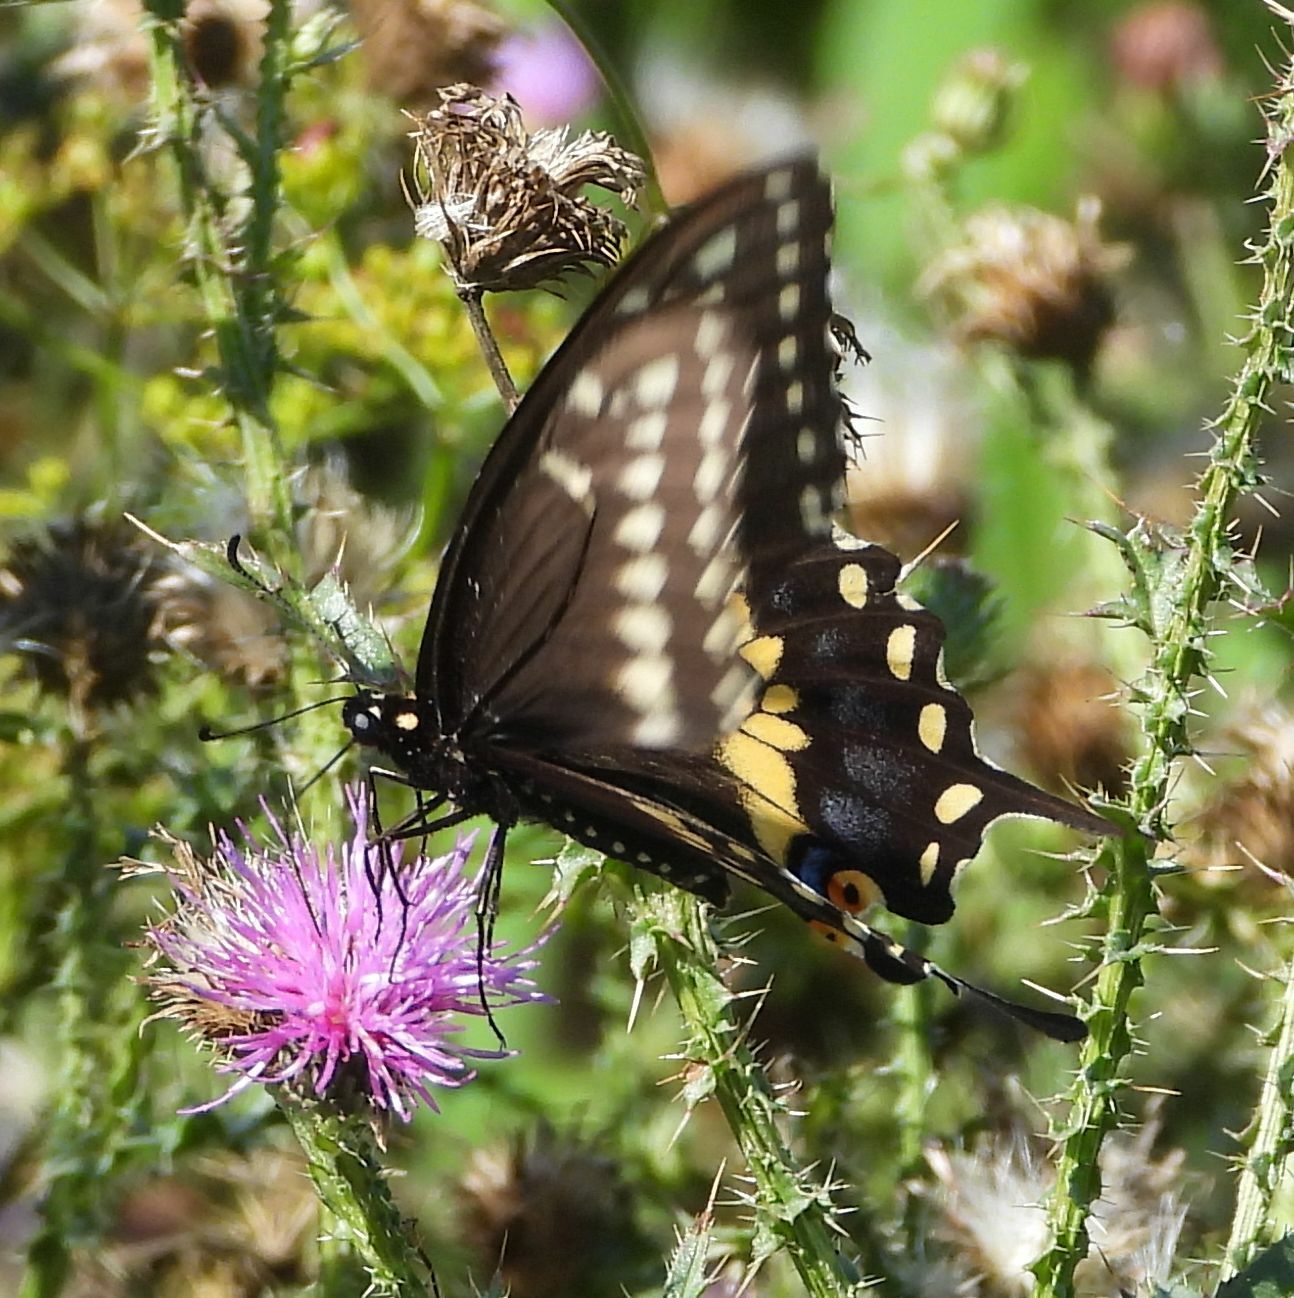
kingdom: Animalia
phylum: Arthropoda
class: Insecta
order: Lepidoptera
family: Papilionidae
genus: Papilio
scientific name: Papilio polyxenes
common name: Black swallowtail
